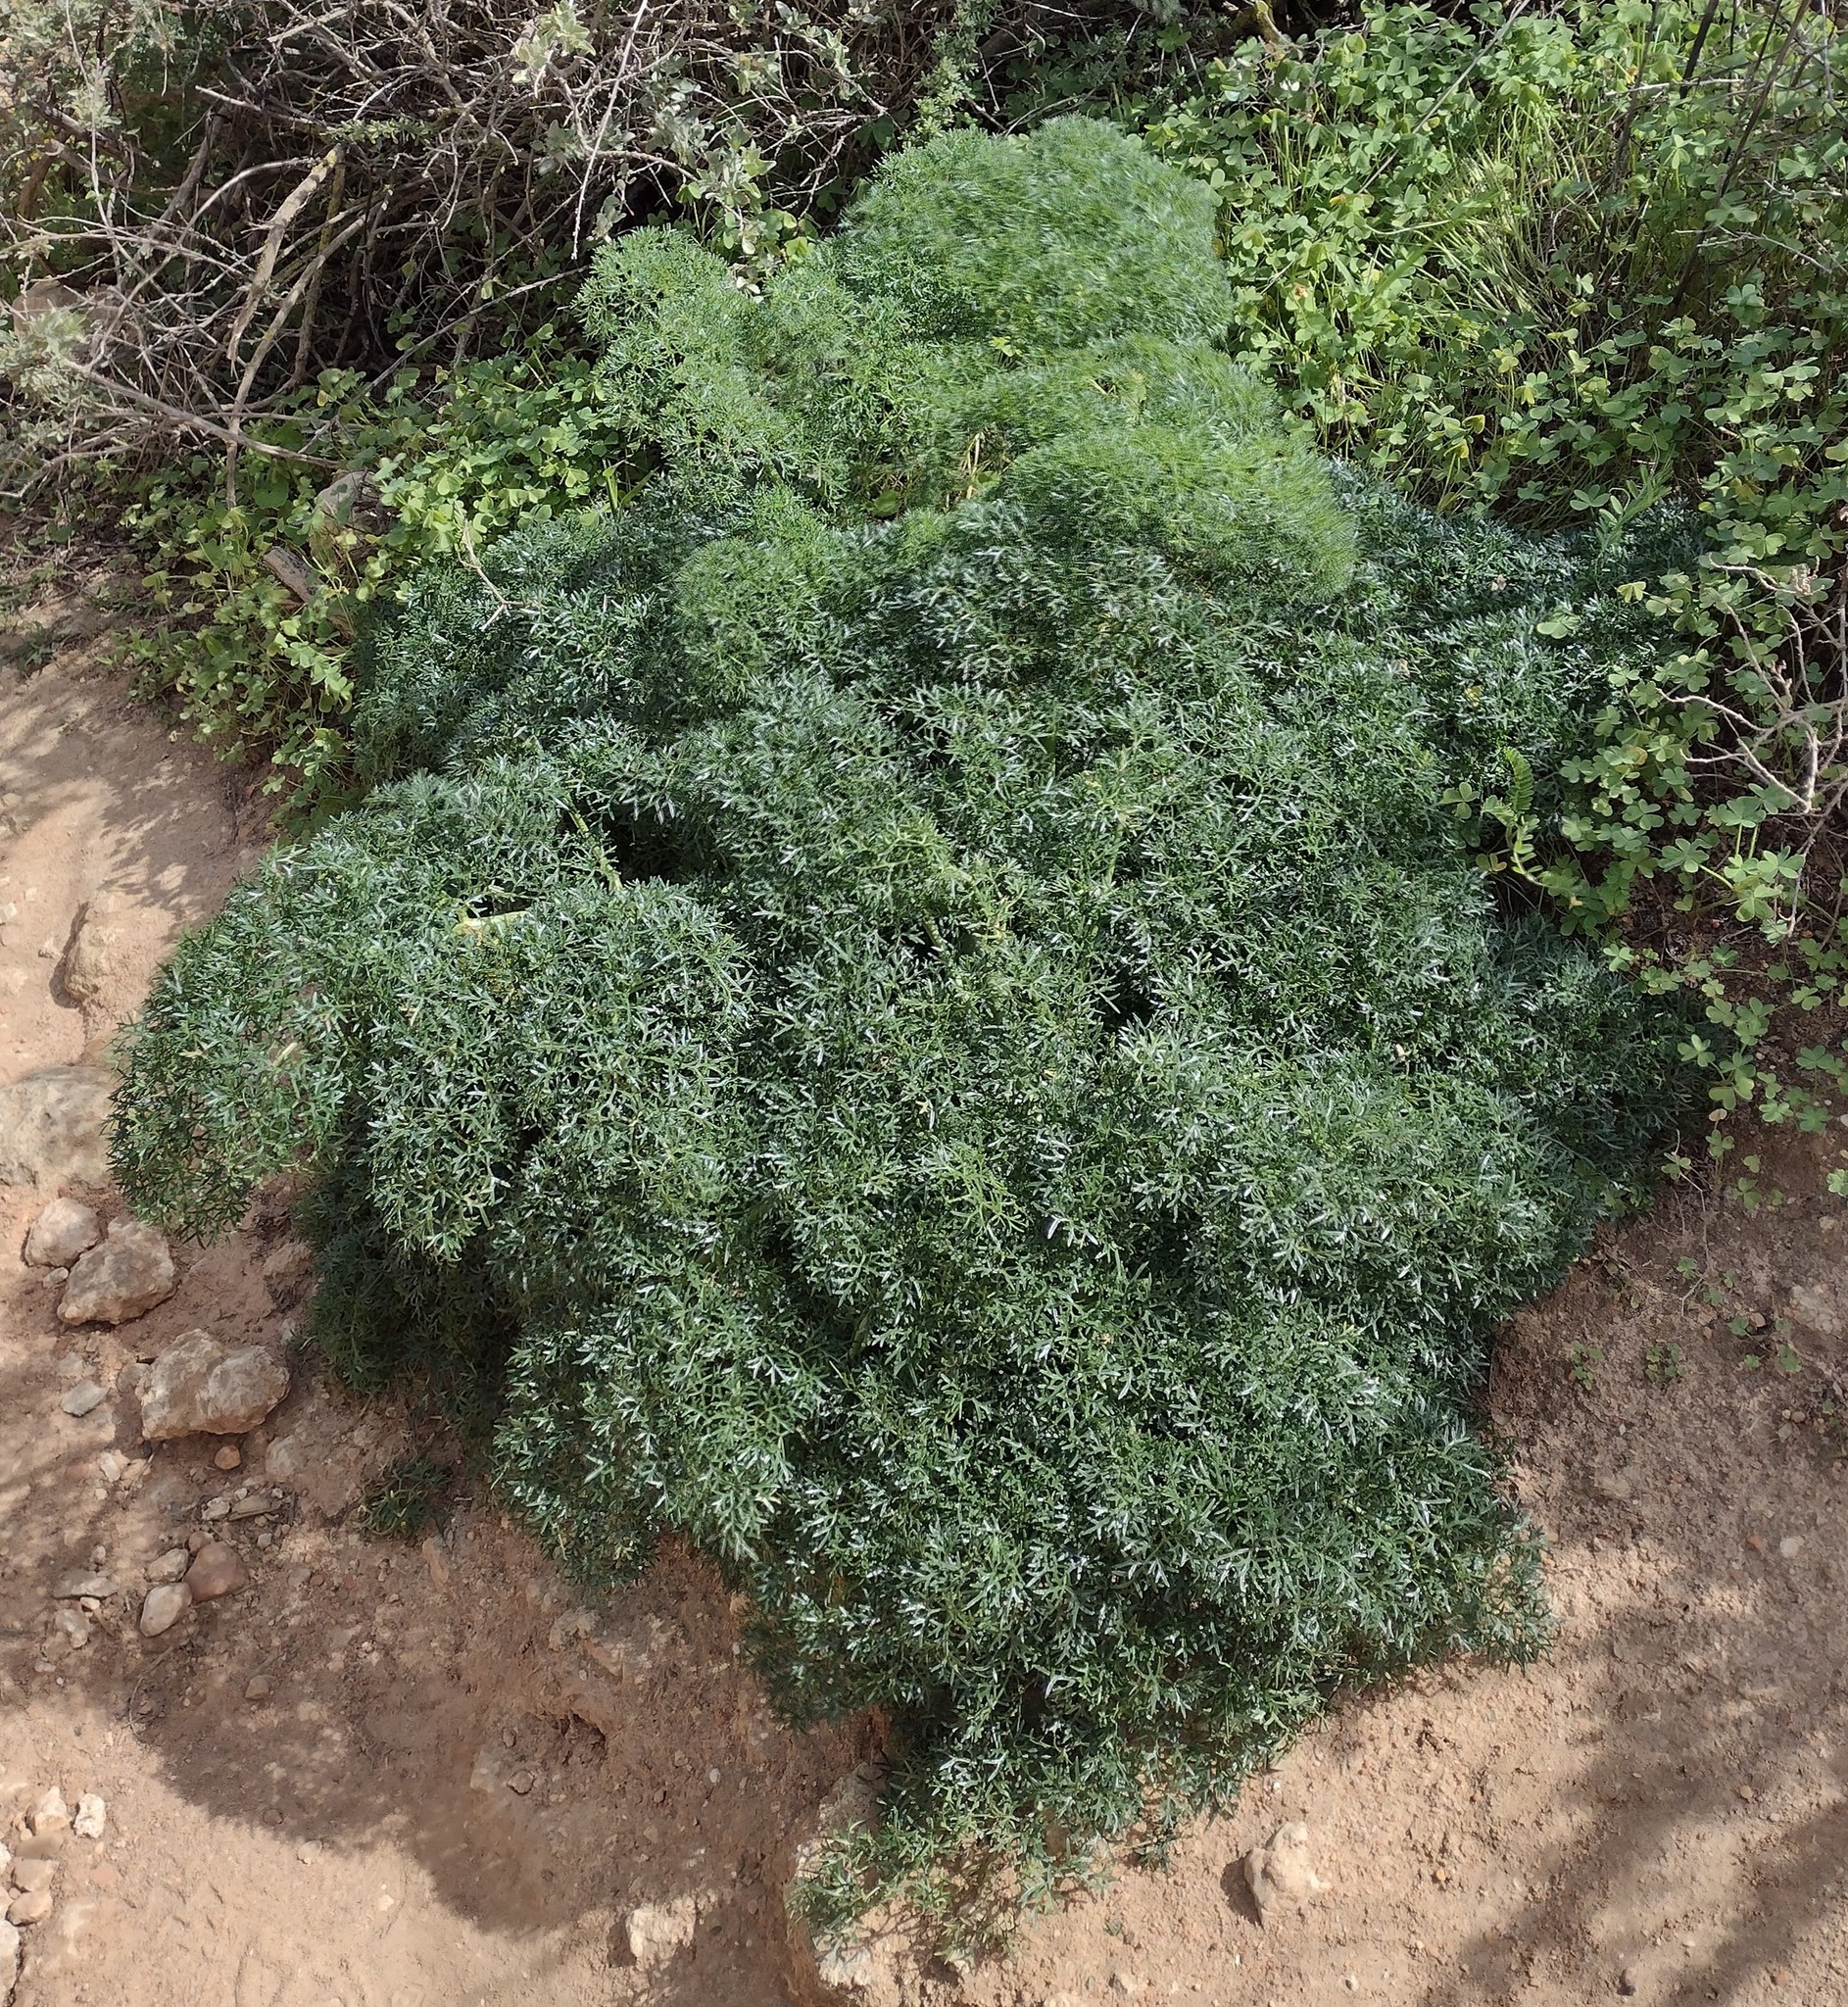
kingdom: Plantae
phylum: Tracheophyta
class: Magnoliopsida
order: Apiales
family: Apiaceae
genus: Ferula
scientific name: Ferula communis
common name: Giant fennel
